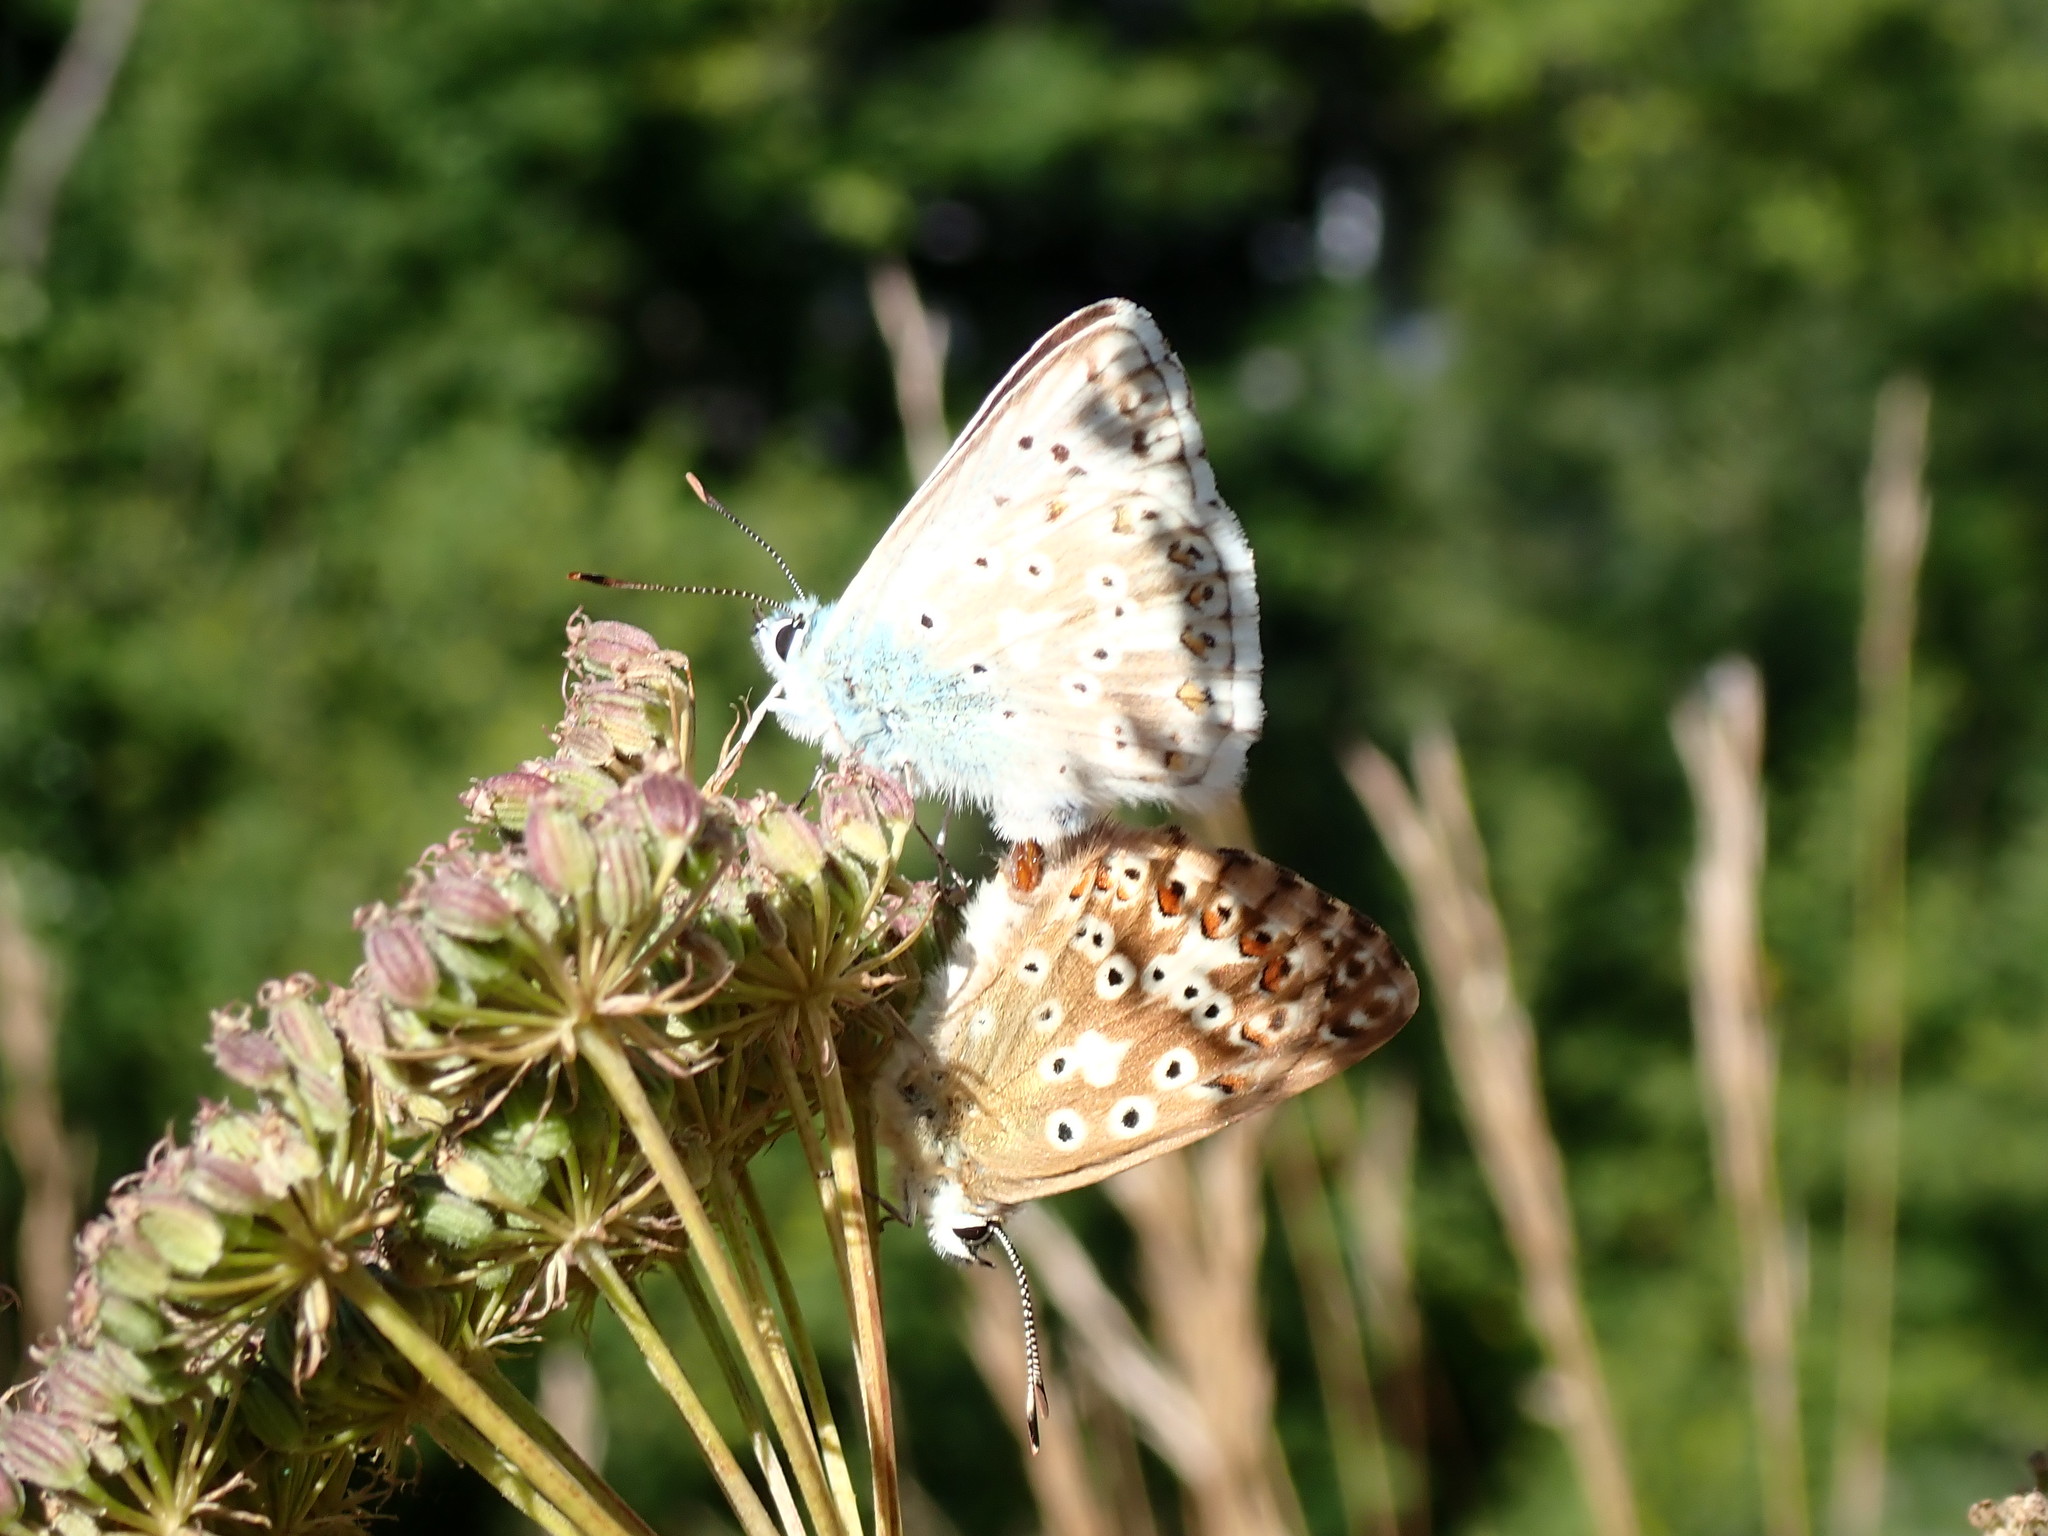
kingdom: Animalia
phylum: Arthropoda
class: Insecta
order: Lepidoptera
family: Lycaenidae
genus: Lysandra
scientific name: Lysandra coridon
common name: Chalkhill blue
